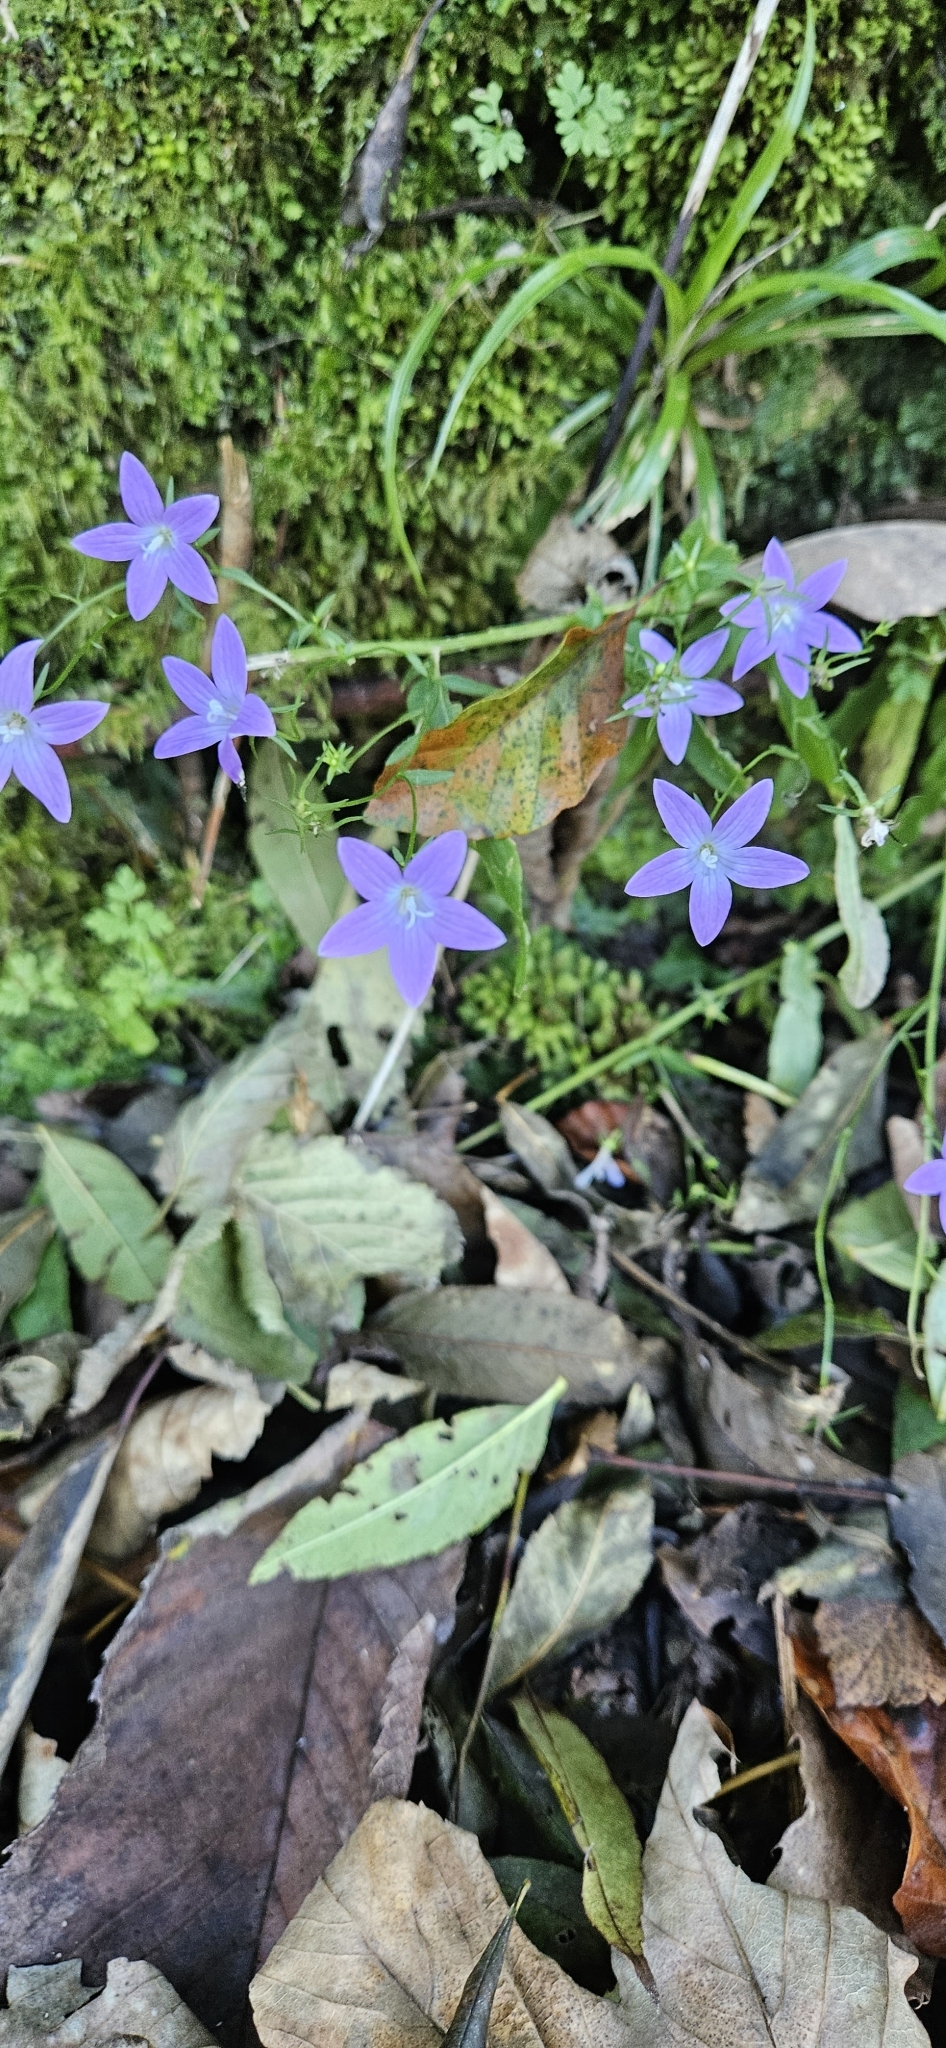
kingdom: Plantae
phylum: Tracheophyta
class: Magnoliopsida
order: Asterales
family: Campanulaceae
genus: Campanula
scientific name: Campanula patula
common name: Spreading bellflower
